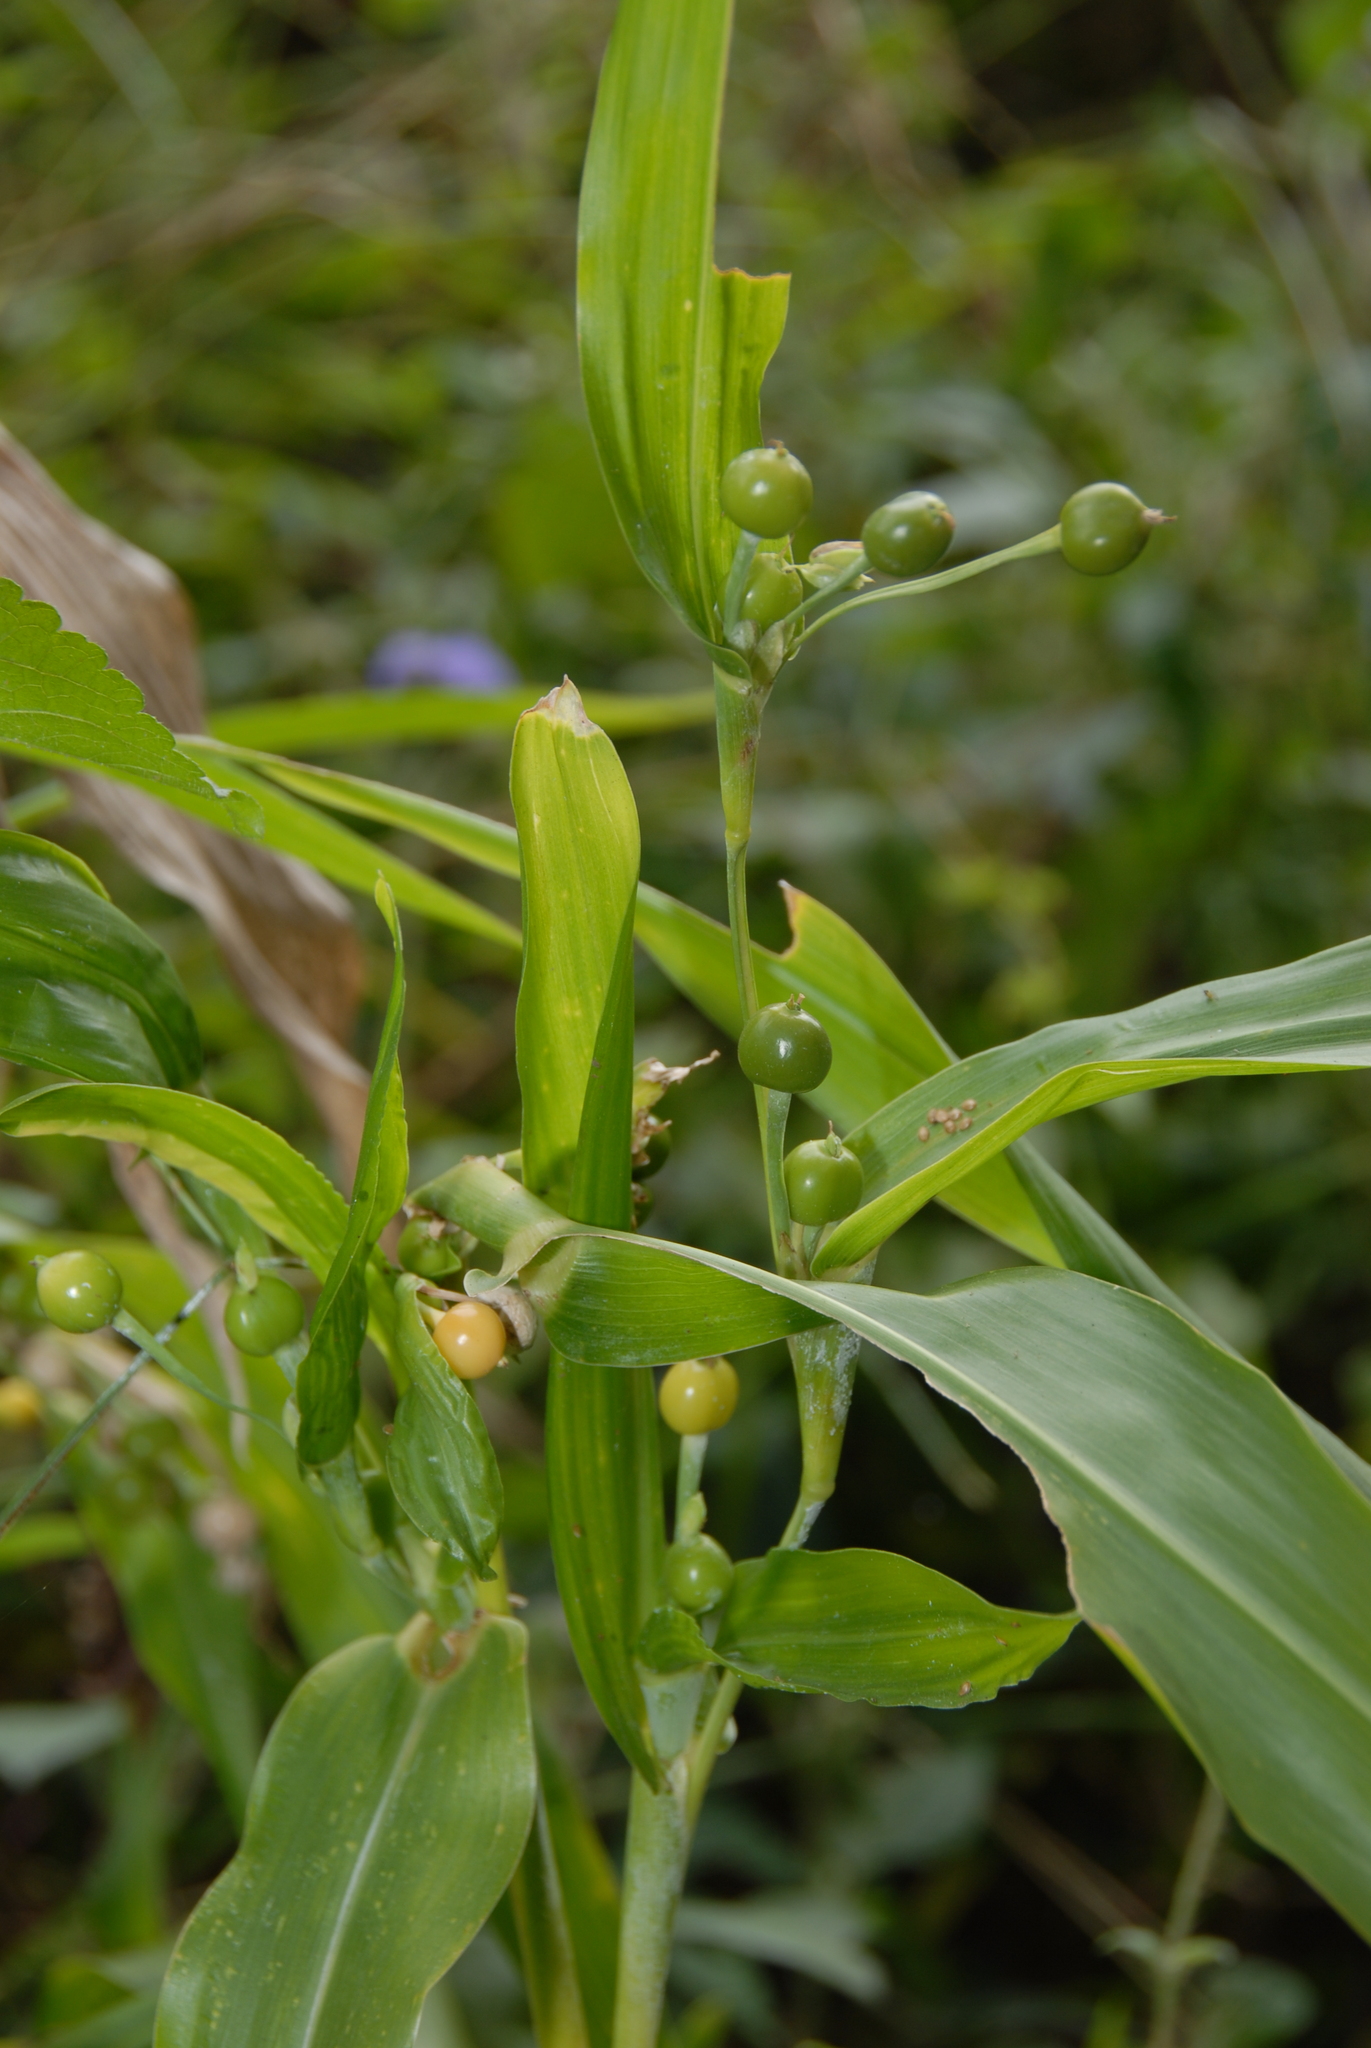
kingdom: Plantae
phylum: Tracheophyta
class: Liliopsida
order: Poales
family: Poaceae
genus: Coix
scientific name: Coix lacryma-jobi
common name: Job's tears
